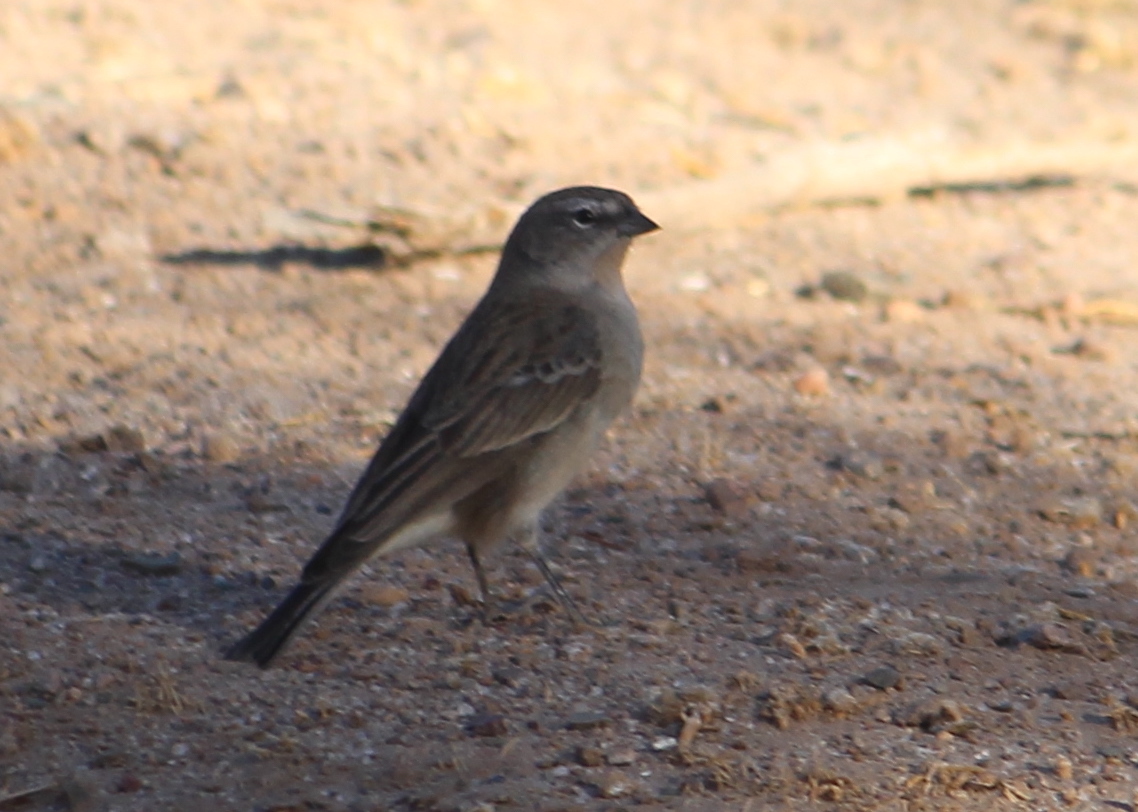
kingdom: Animalia
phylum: Chordata
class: Aves
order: Passeriformes
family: Thraupidae
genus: Geospizopsis
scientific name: Geospizopsis plebejus
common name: Ash-breasted sierra-finch
